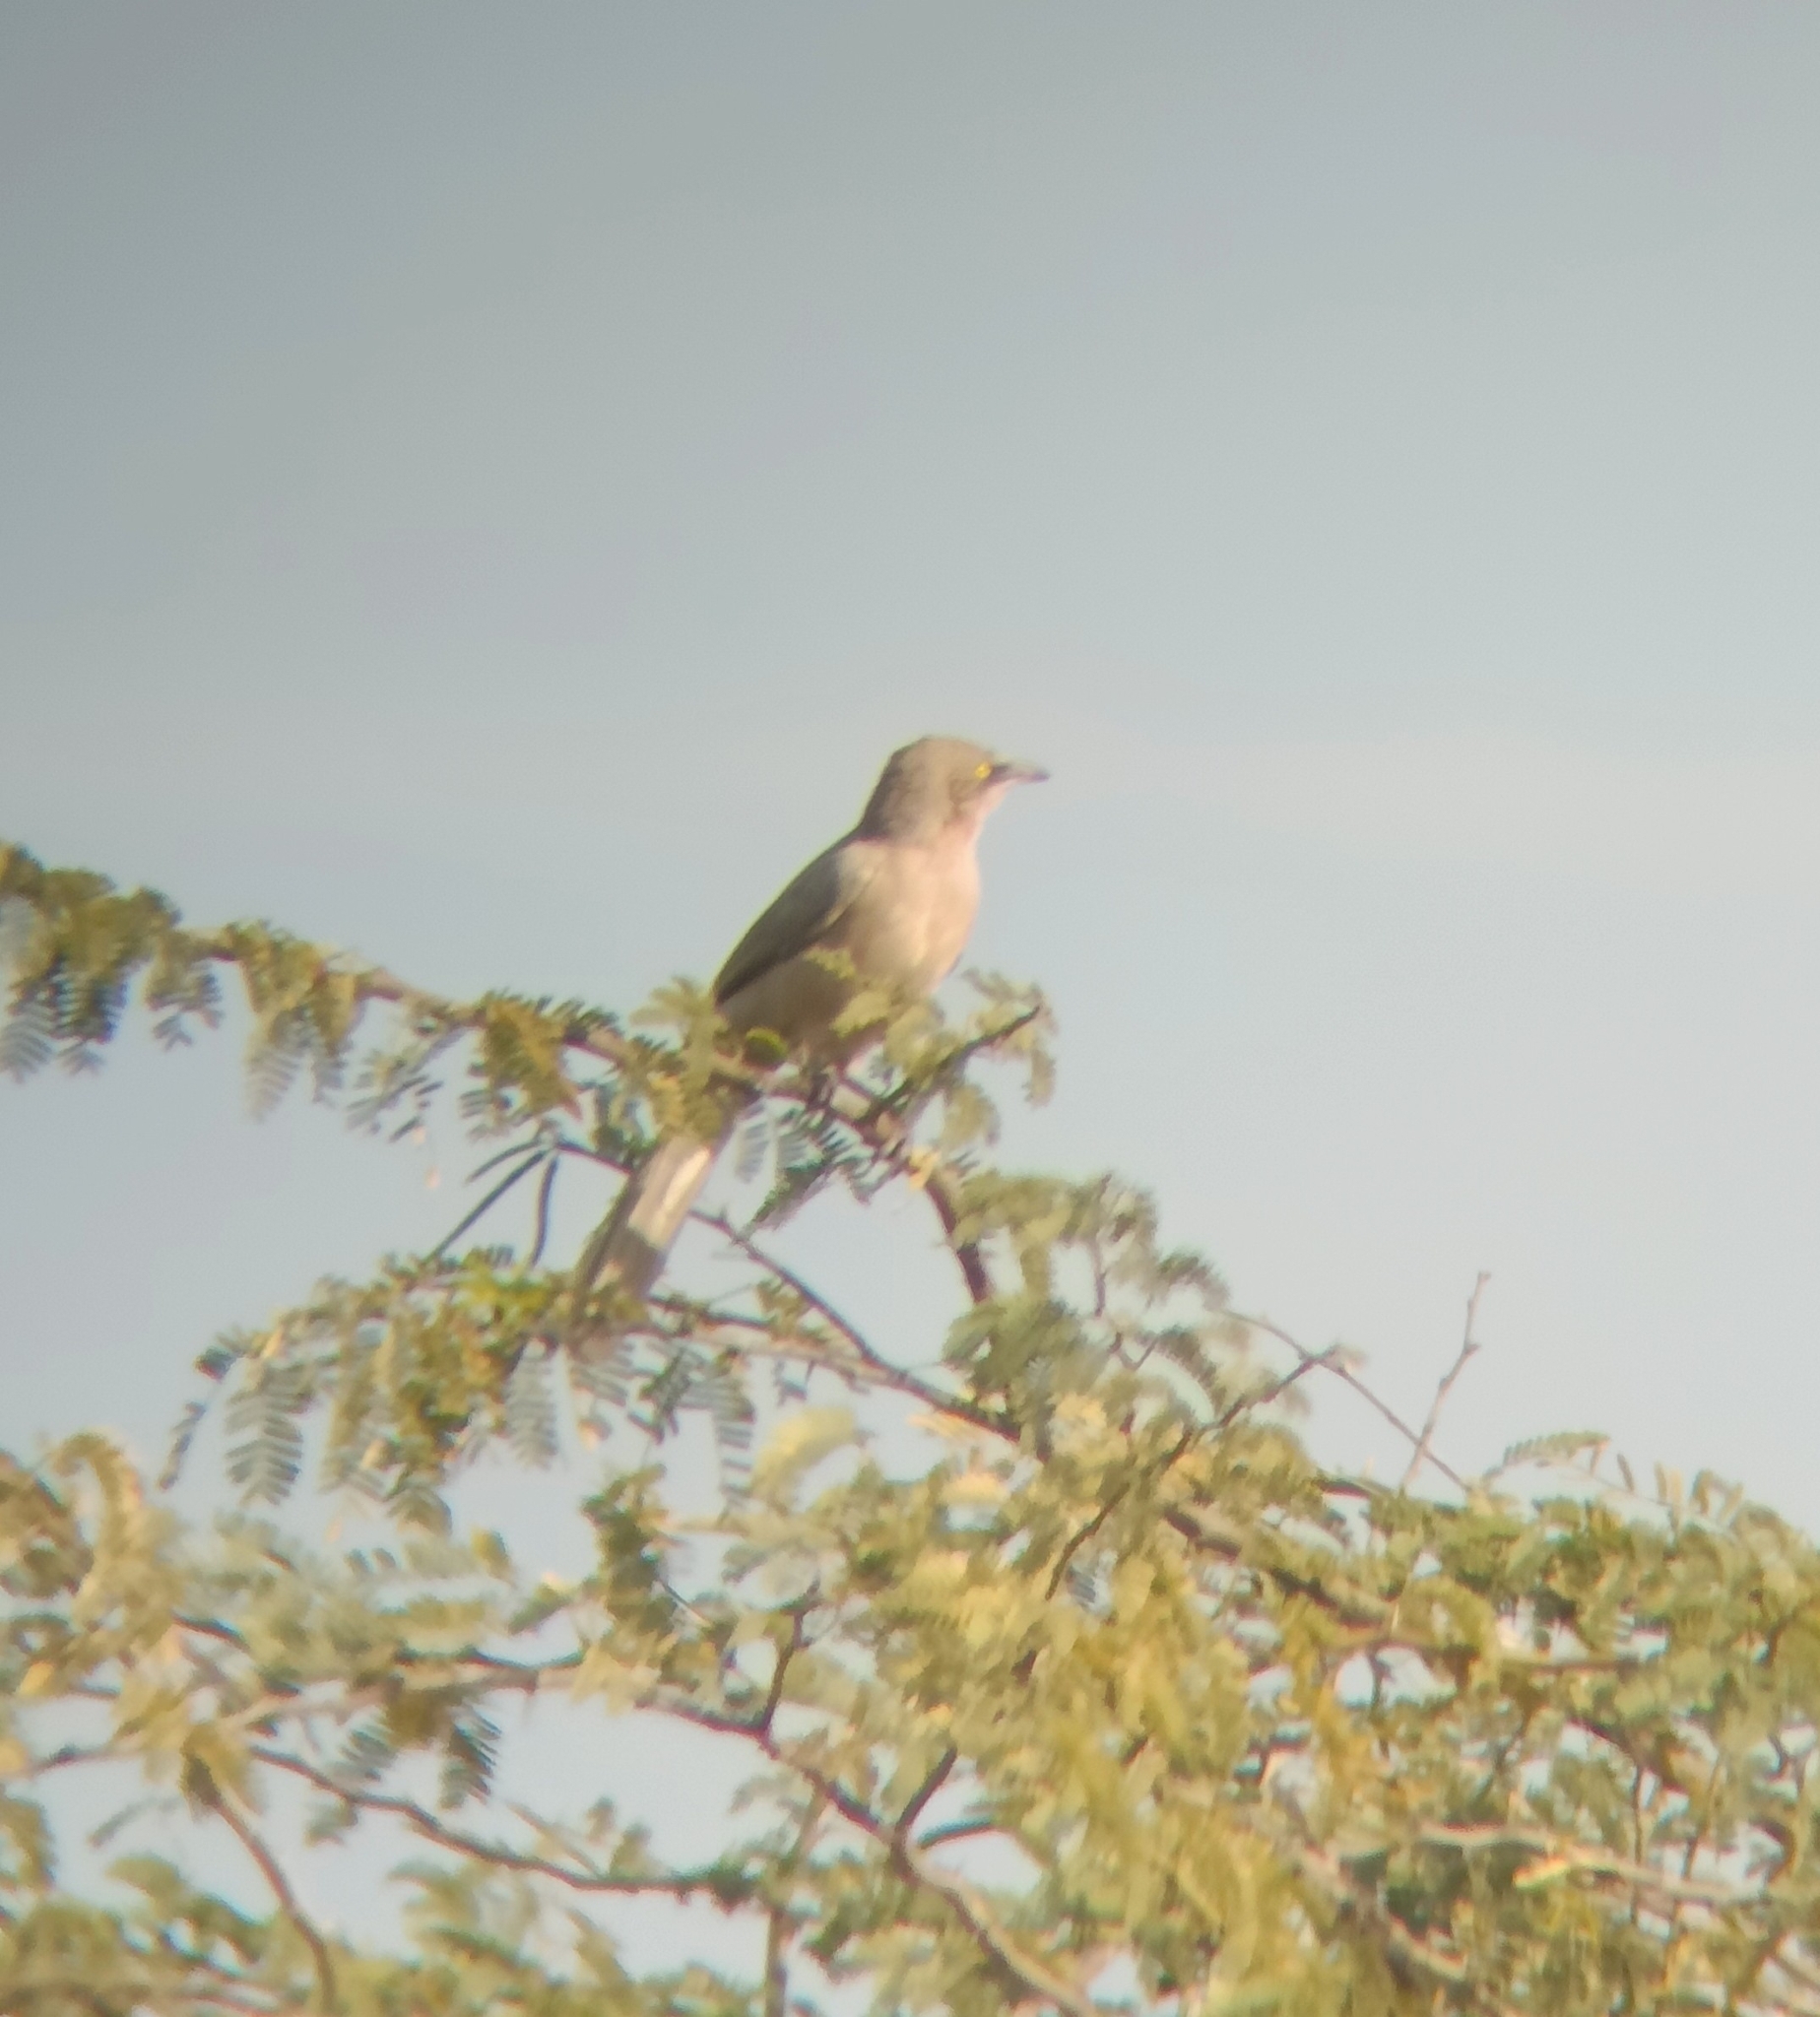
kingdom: Animalia
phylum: Chordata
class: Aves
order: Passeriformes
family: Leiothrichidae
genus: Turdoides
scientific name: Turdoides malcolmi
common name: Large grey babbler
